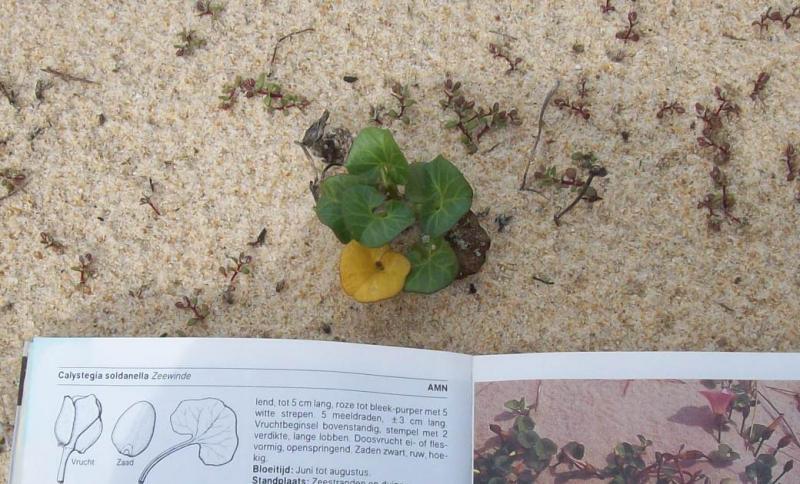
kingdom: Plantae
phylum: Tracheophyta
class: Magnoliopsida
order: Solanales
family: Convolvulaceae
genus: Calystegia
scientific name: Calystegia soldanella
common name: Sea bindweed
